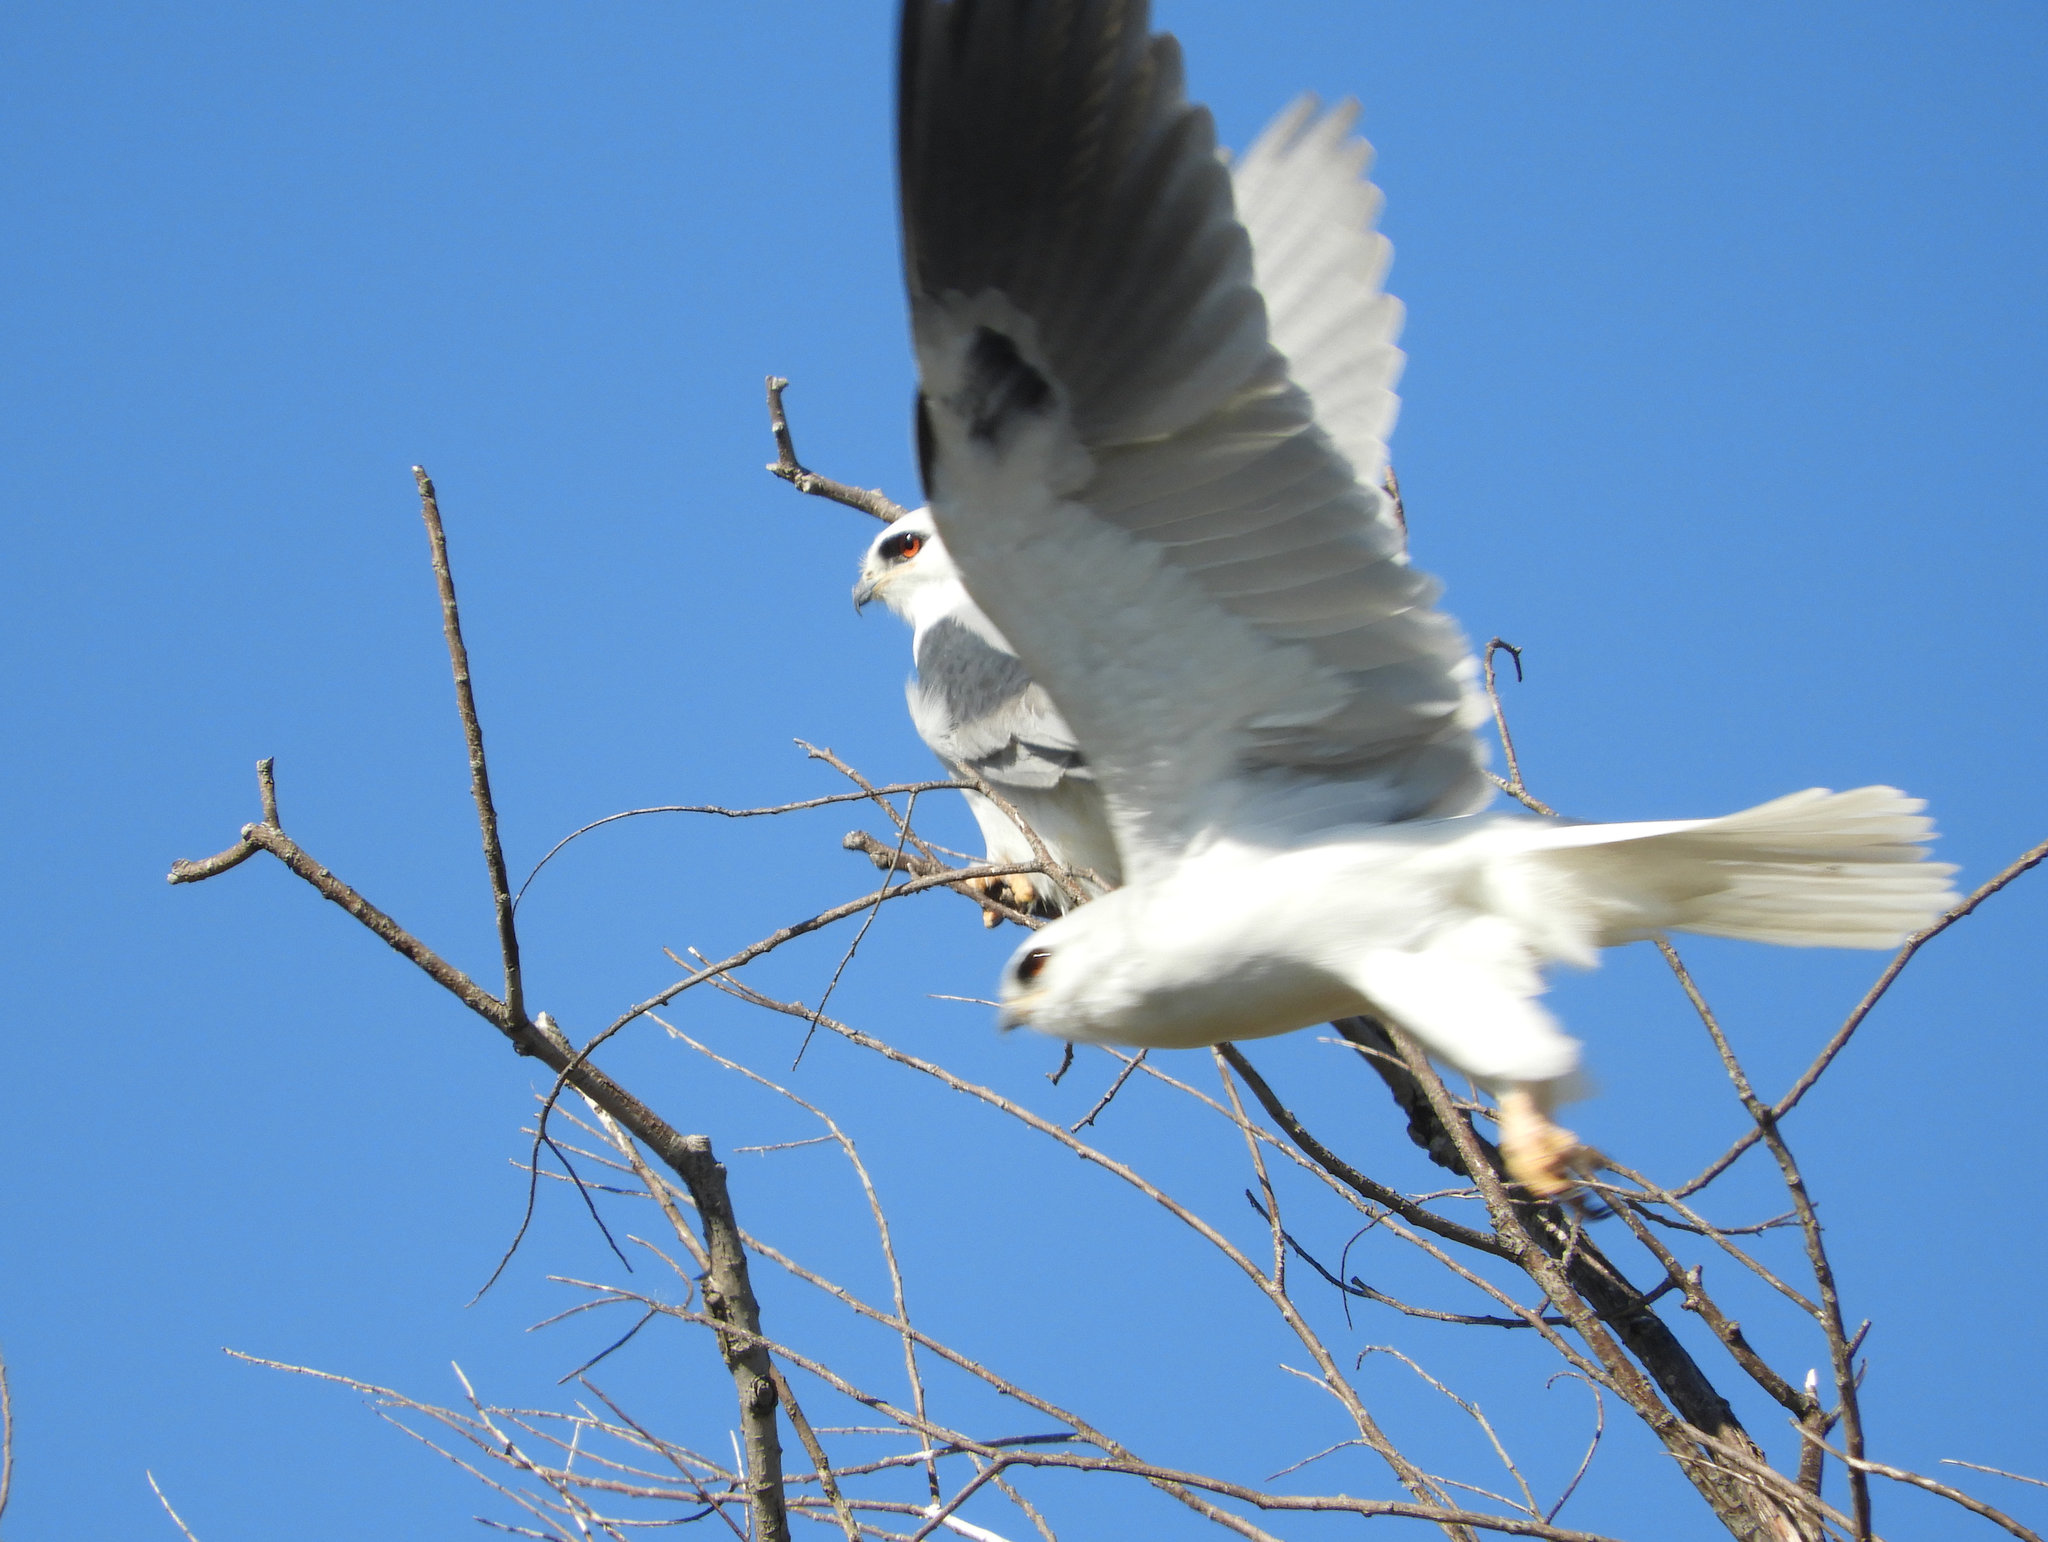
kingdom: Animalia
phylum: Chordata
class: Aves
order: Accipitriformes
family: Accipitridae
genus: Elanus
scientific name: Elanus leucurus
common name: White-tailed kite
